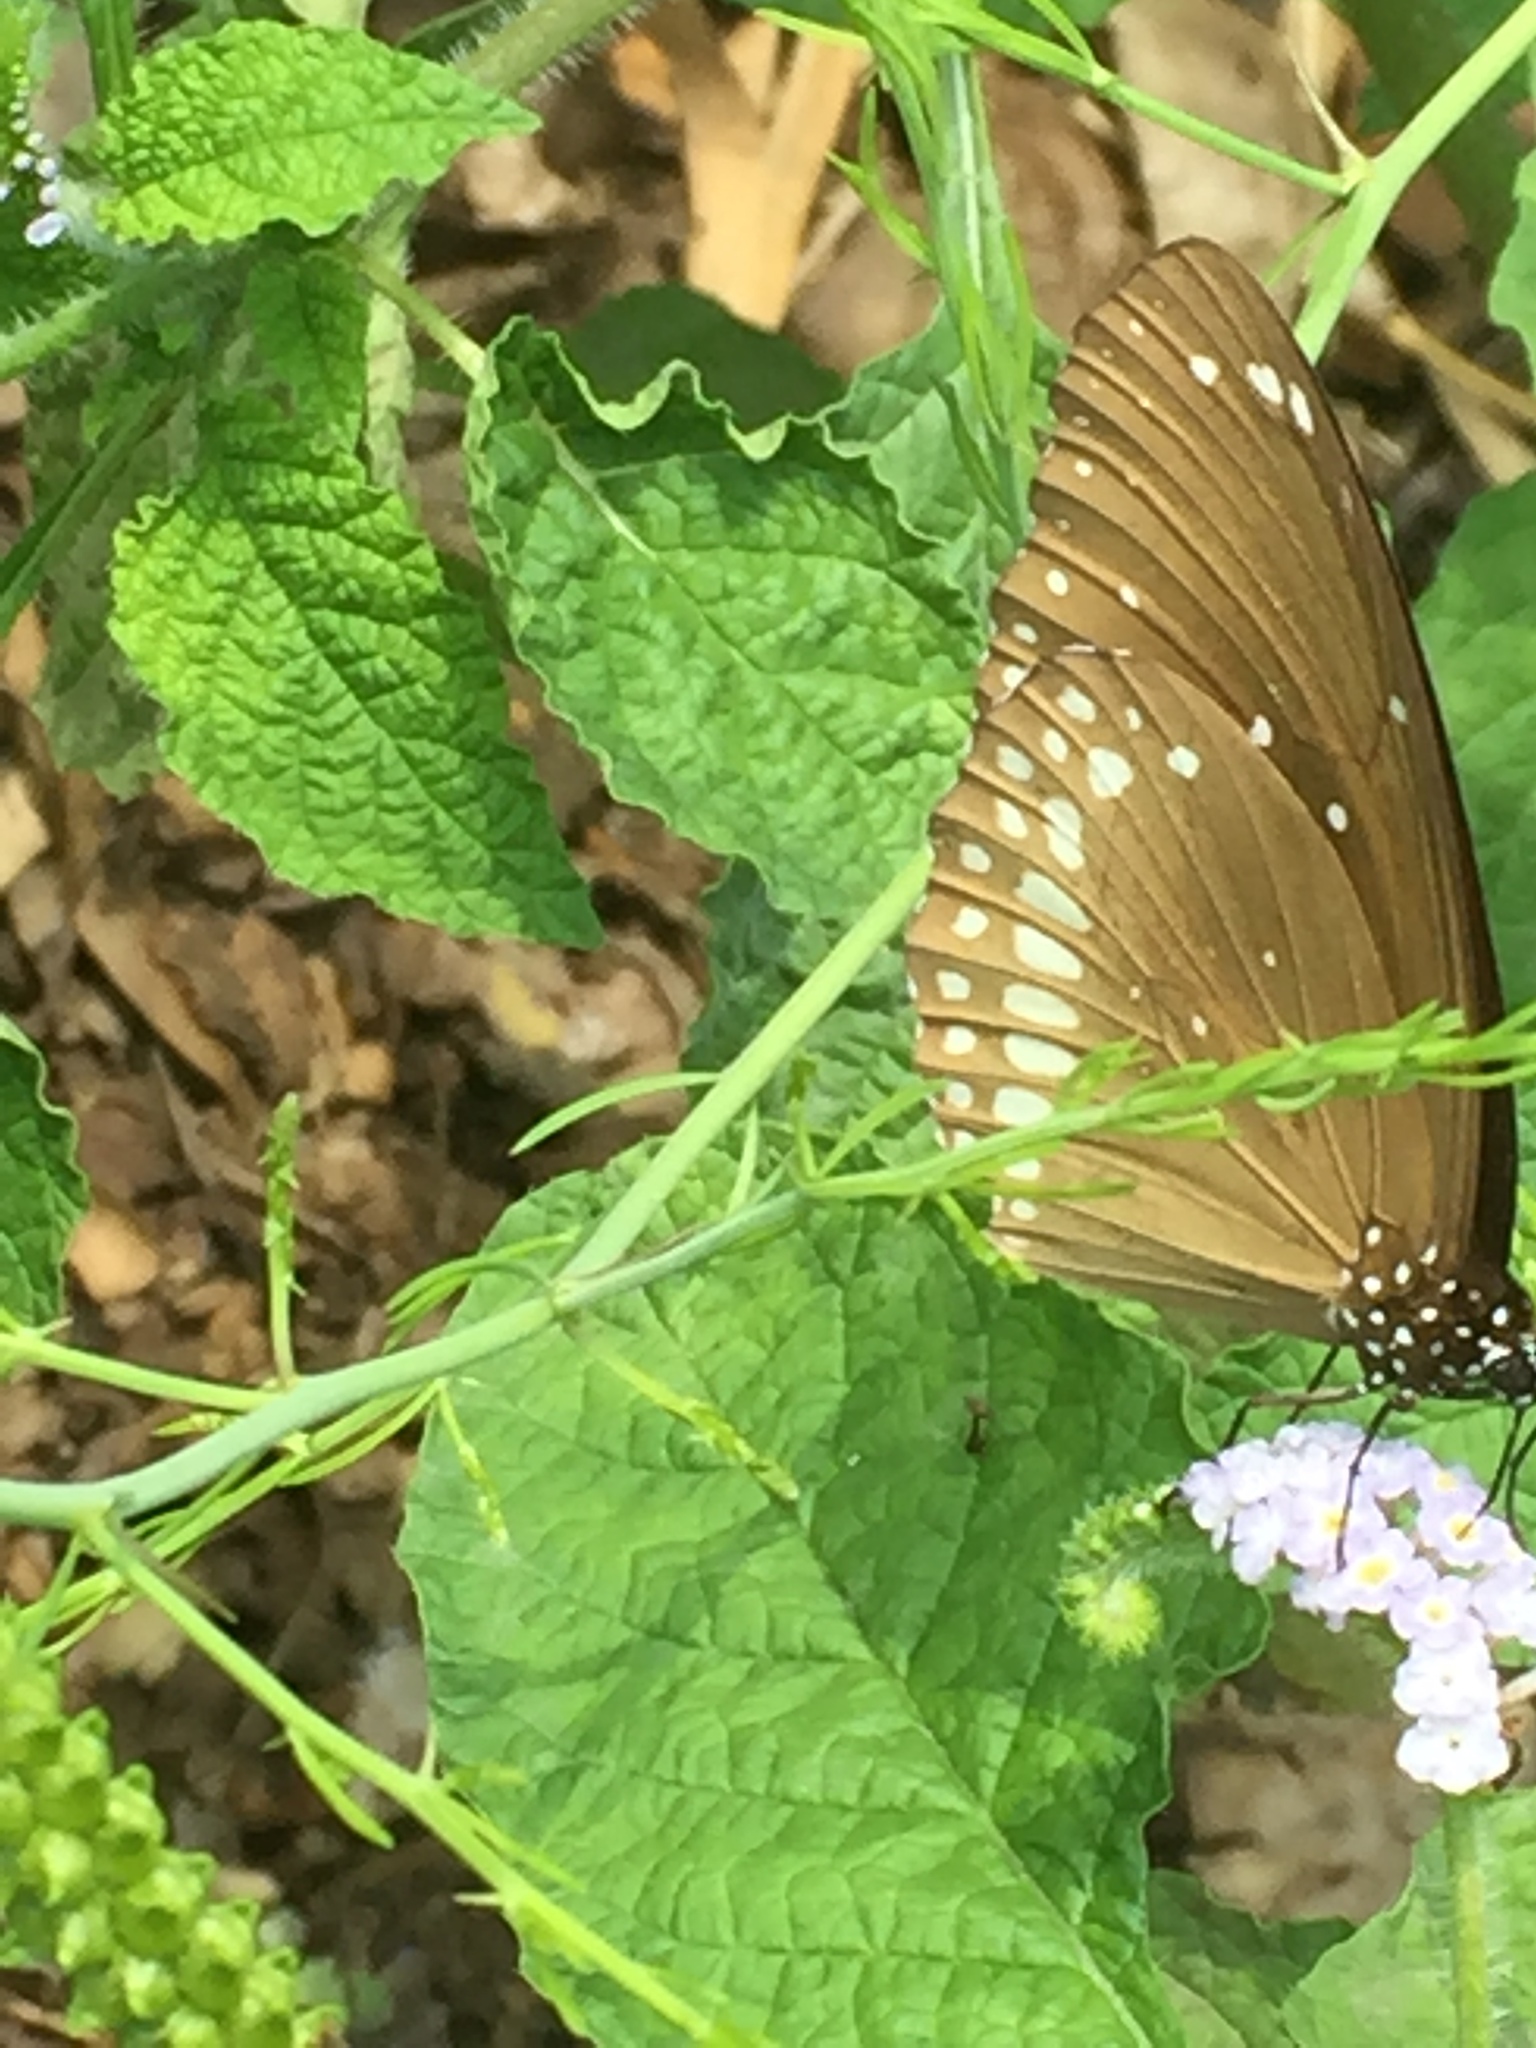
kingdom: Animalia
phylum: Arthropoda
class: Insecta
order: Lepidoptera
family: Nymphalidae
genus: Euploea
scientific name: Euploea core
